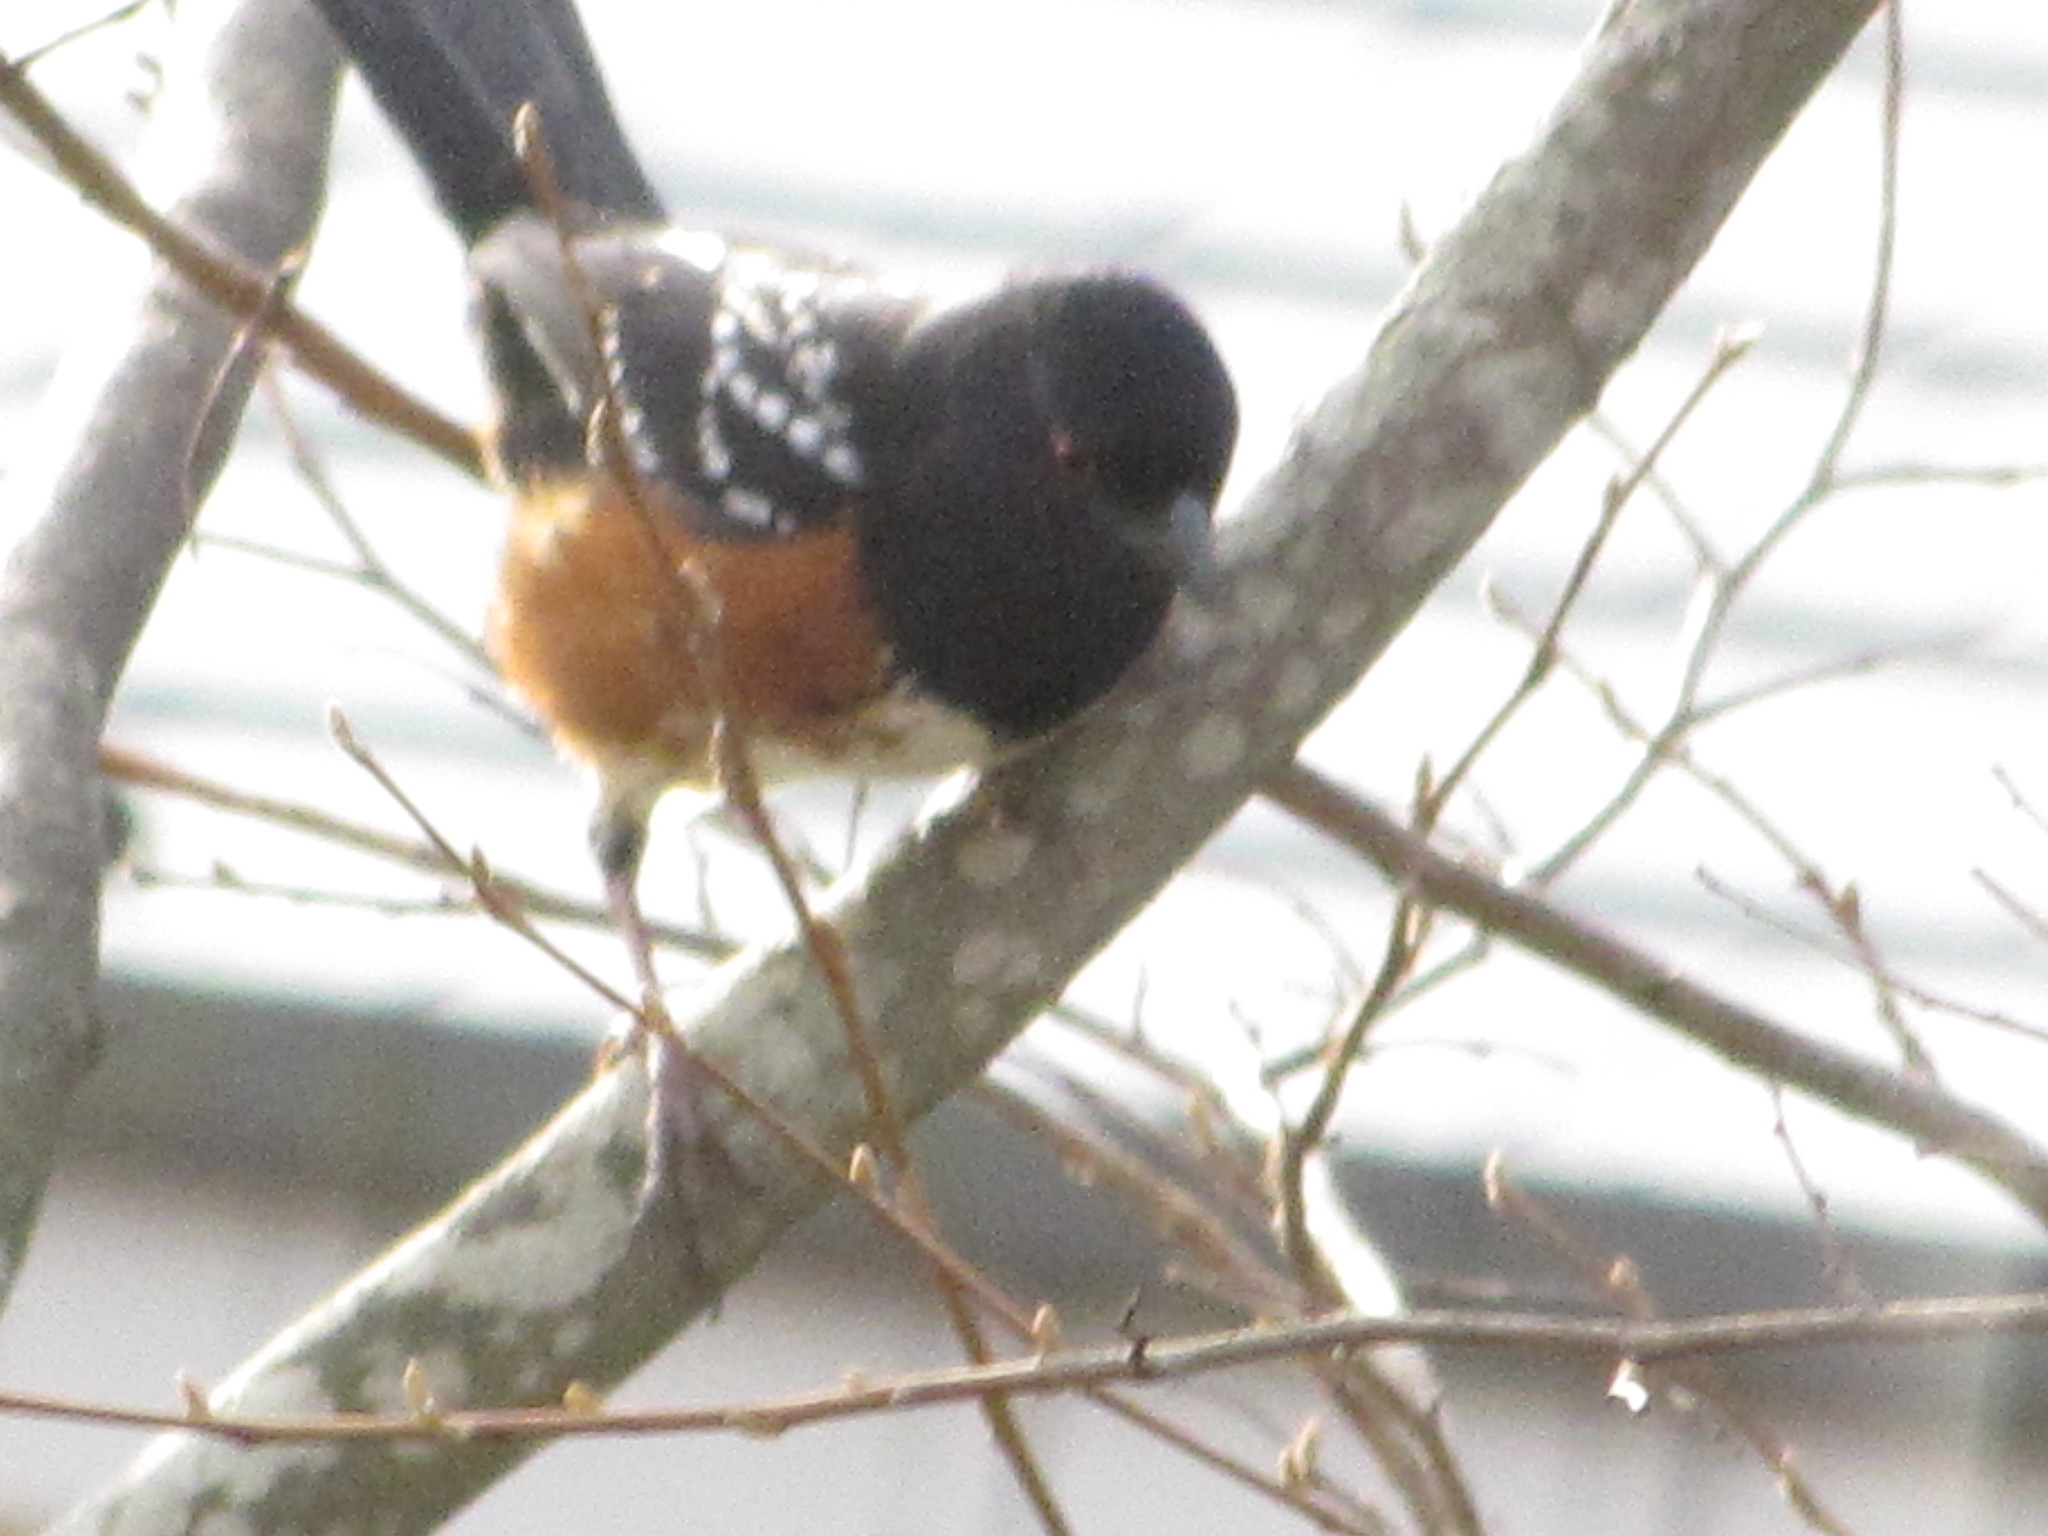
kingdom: Animalia
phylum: Chordata
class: Aves
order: Passeriformes
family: Passerellidae
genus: Pipilo
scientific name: Pipilo maculatus
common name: Spotted towhee
